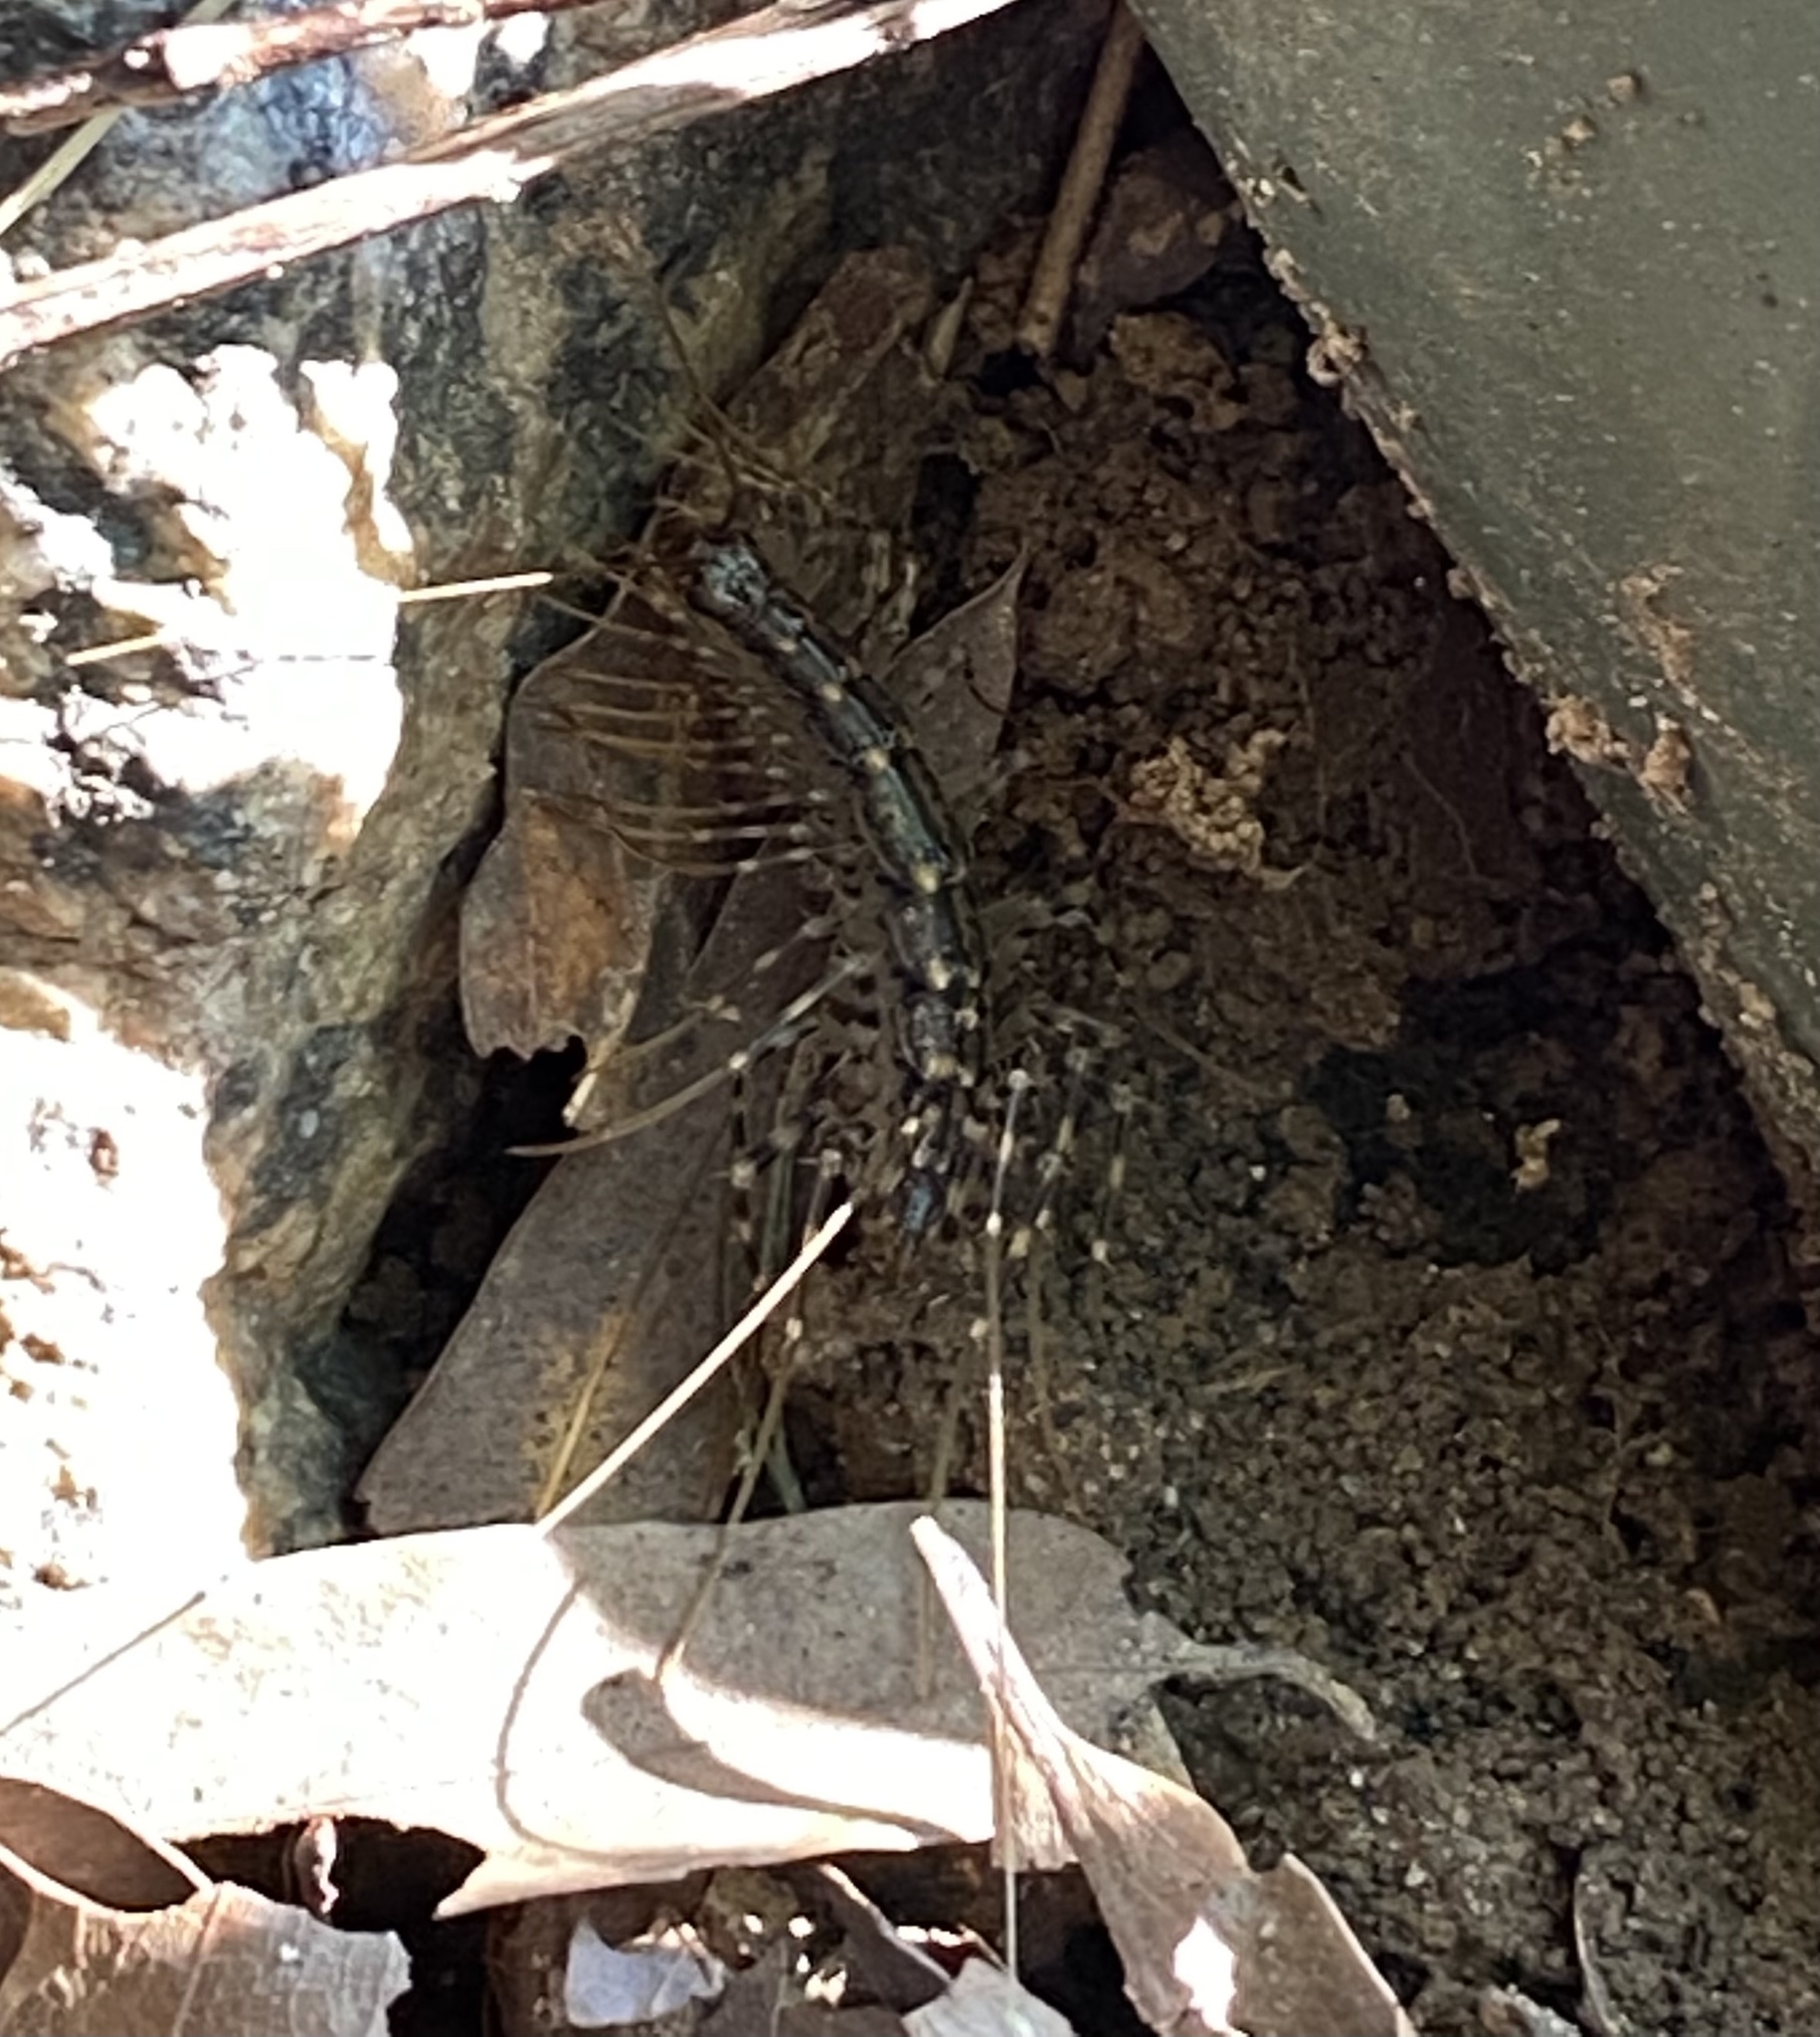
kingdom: Animalia
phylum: Arthropoda
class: Chilopoda
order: Scutigeromorpha
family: Scutigeridae
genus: Scutigera
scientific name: Scutigera coleoptrata
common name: House centipede
